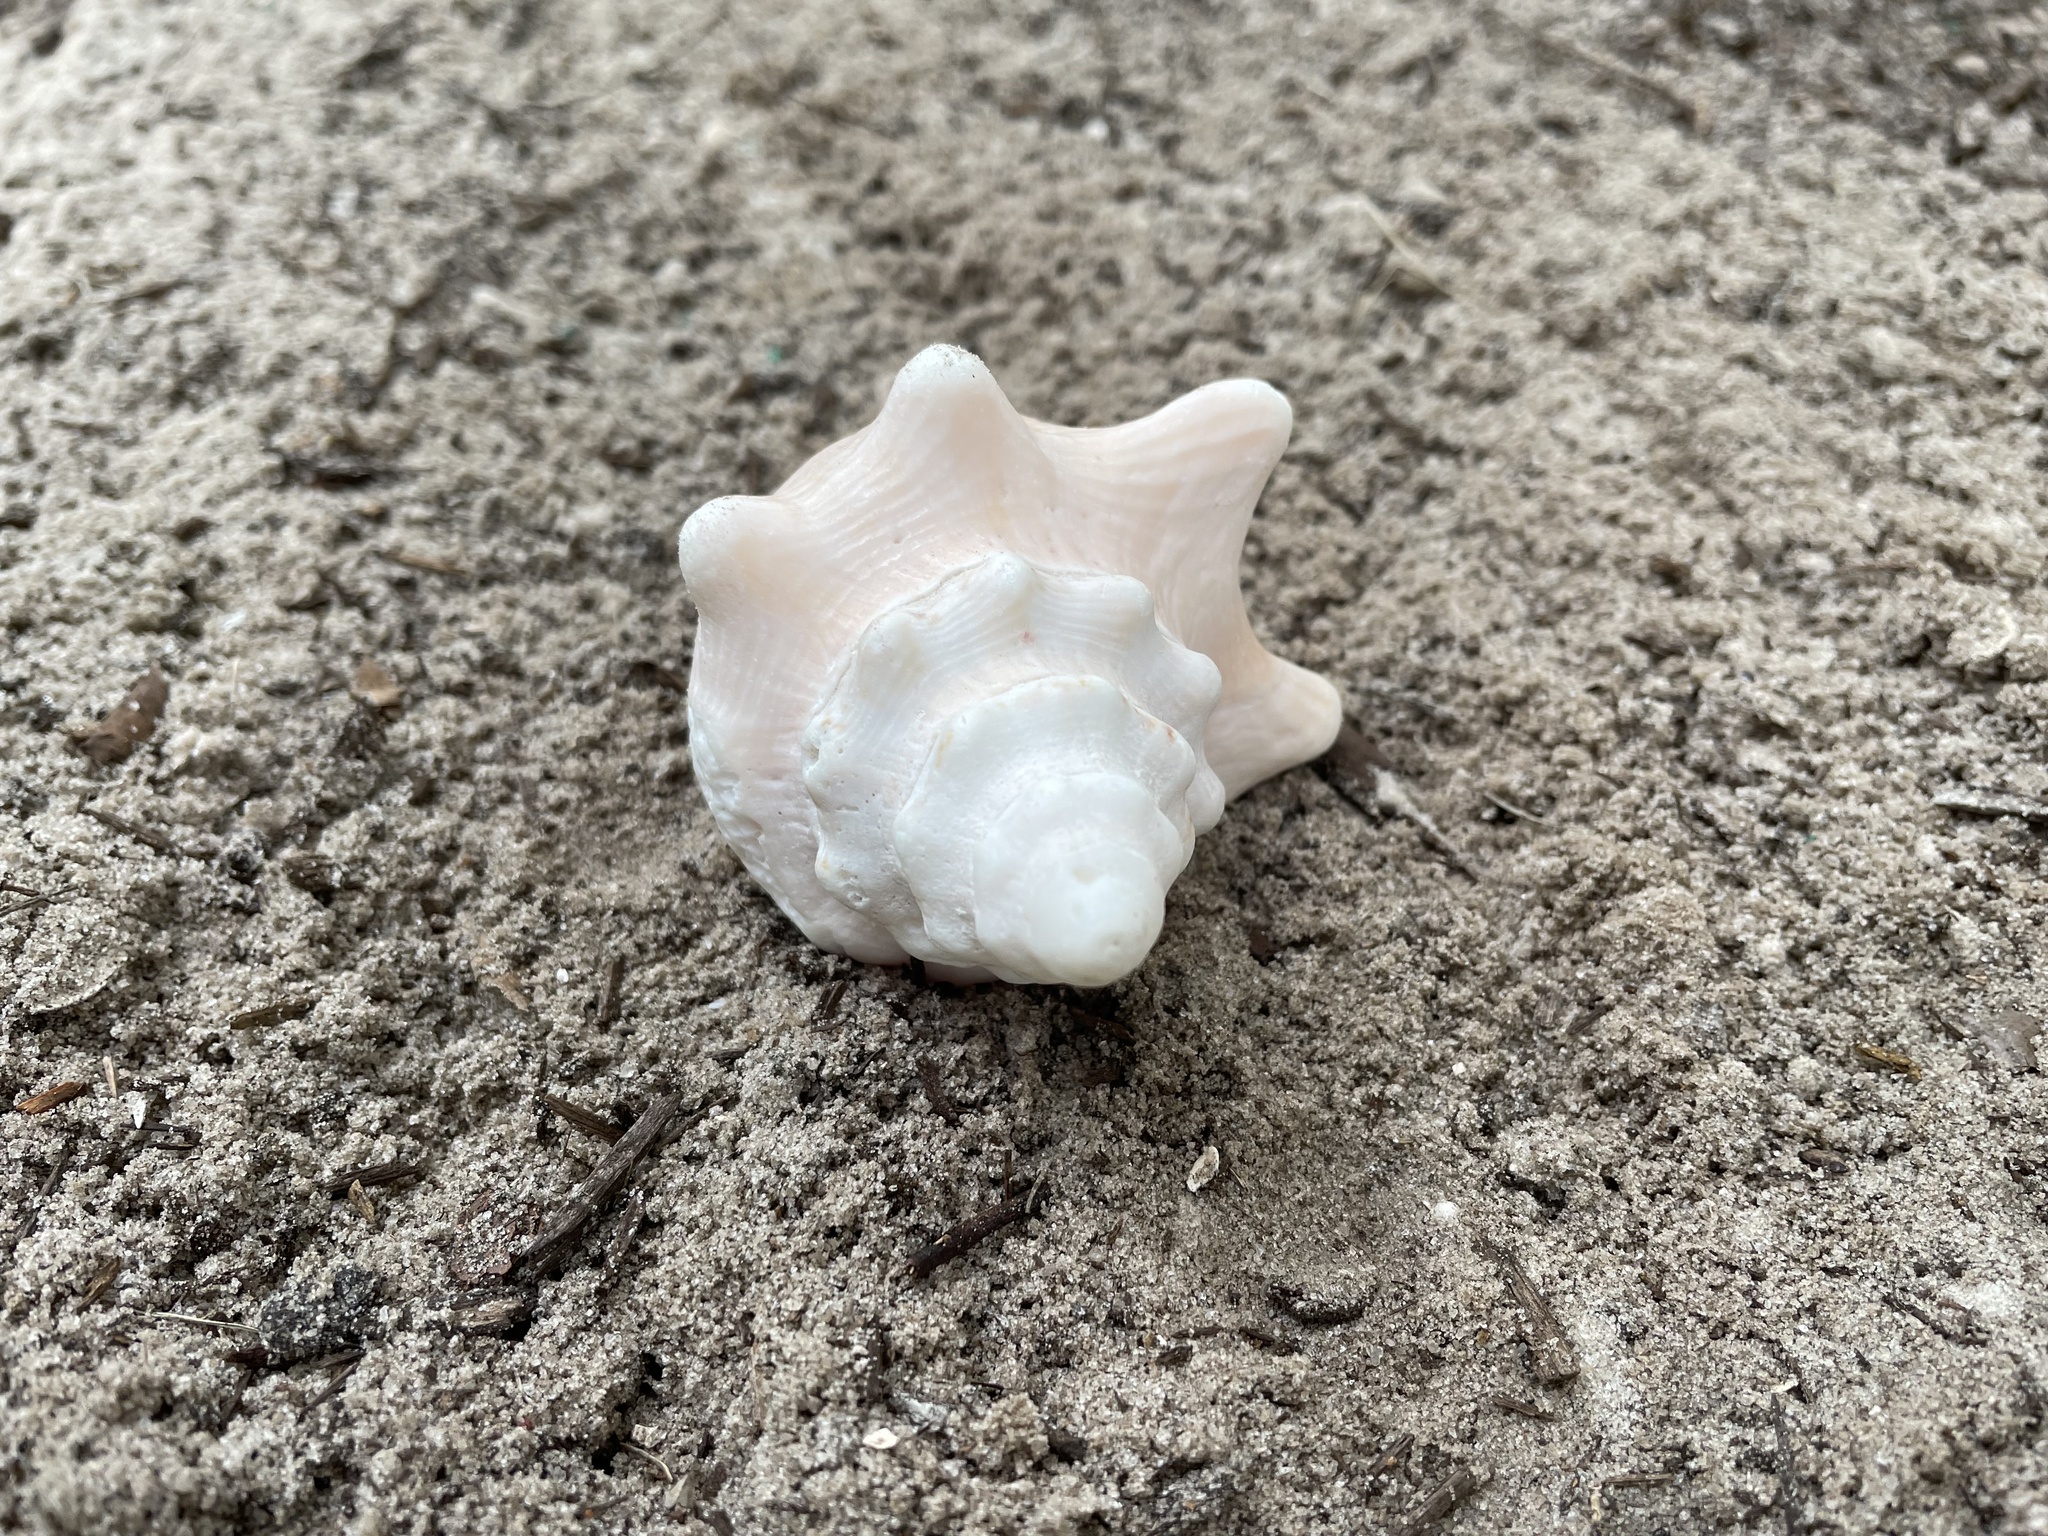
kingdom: Animalia
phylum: Mollusca
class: Gastropoda
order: Littorinimorpha
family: Strombidae
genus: Aliger
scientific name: Aliger gigas
